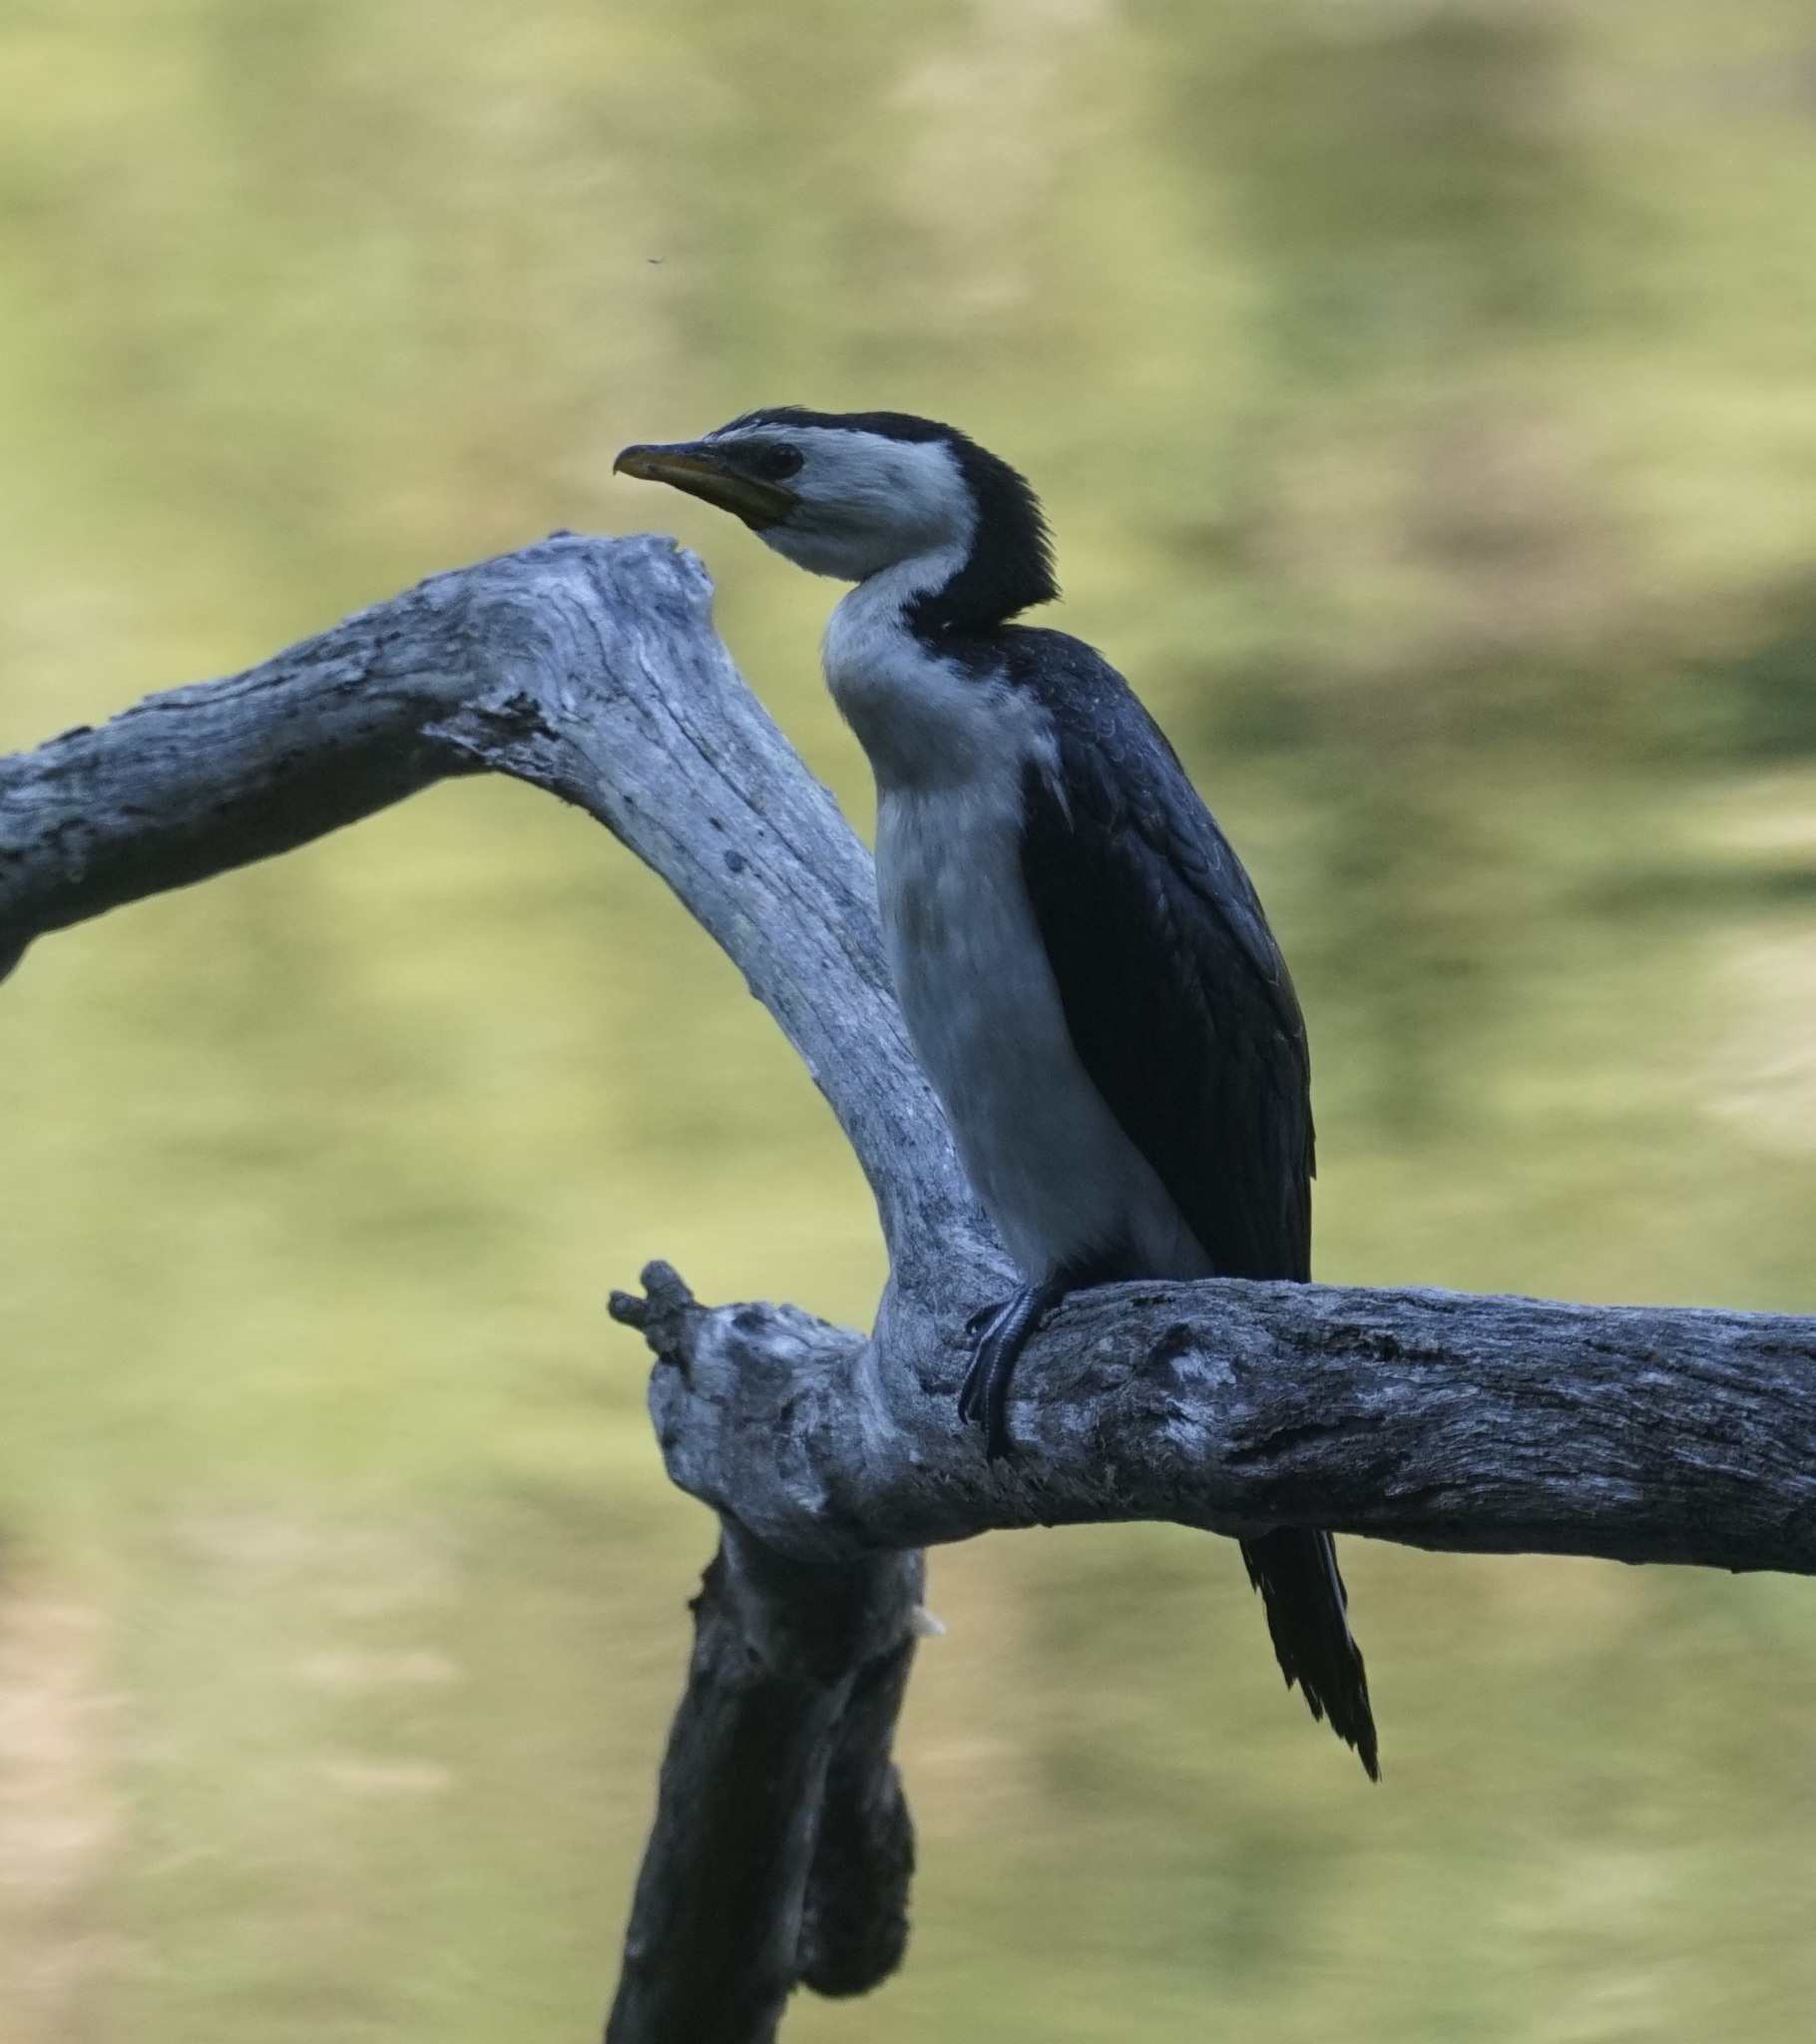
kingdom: Animalia
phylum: Chordata
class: Aves
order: Suliformes
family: Phalacrocoracidae
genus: Microcarbo
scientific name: Microcarbo melanoleucos
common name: Little pied cormorant
